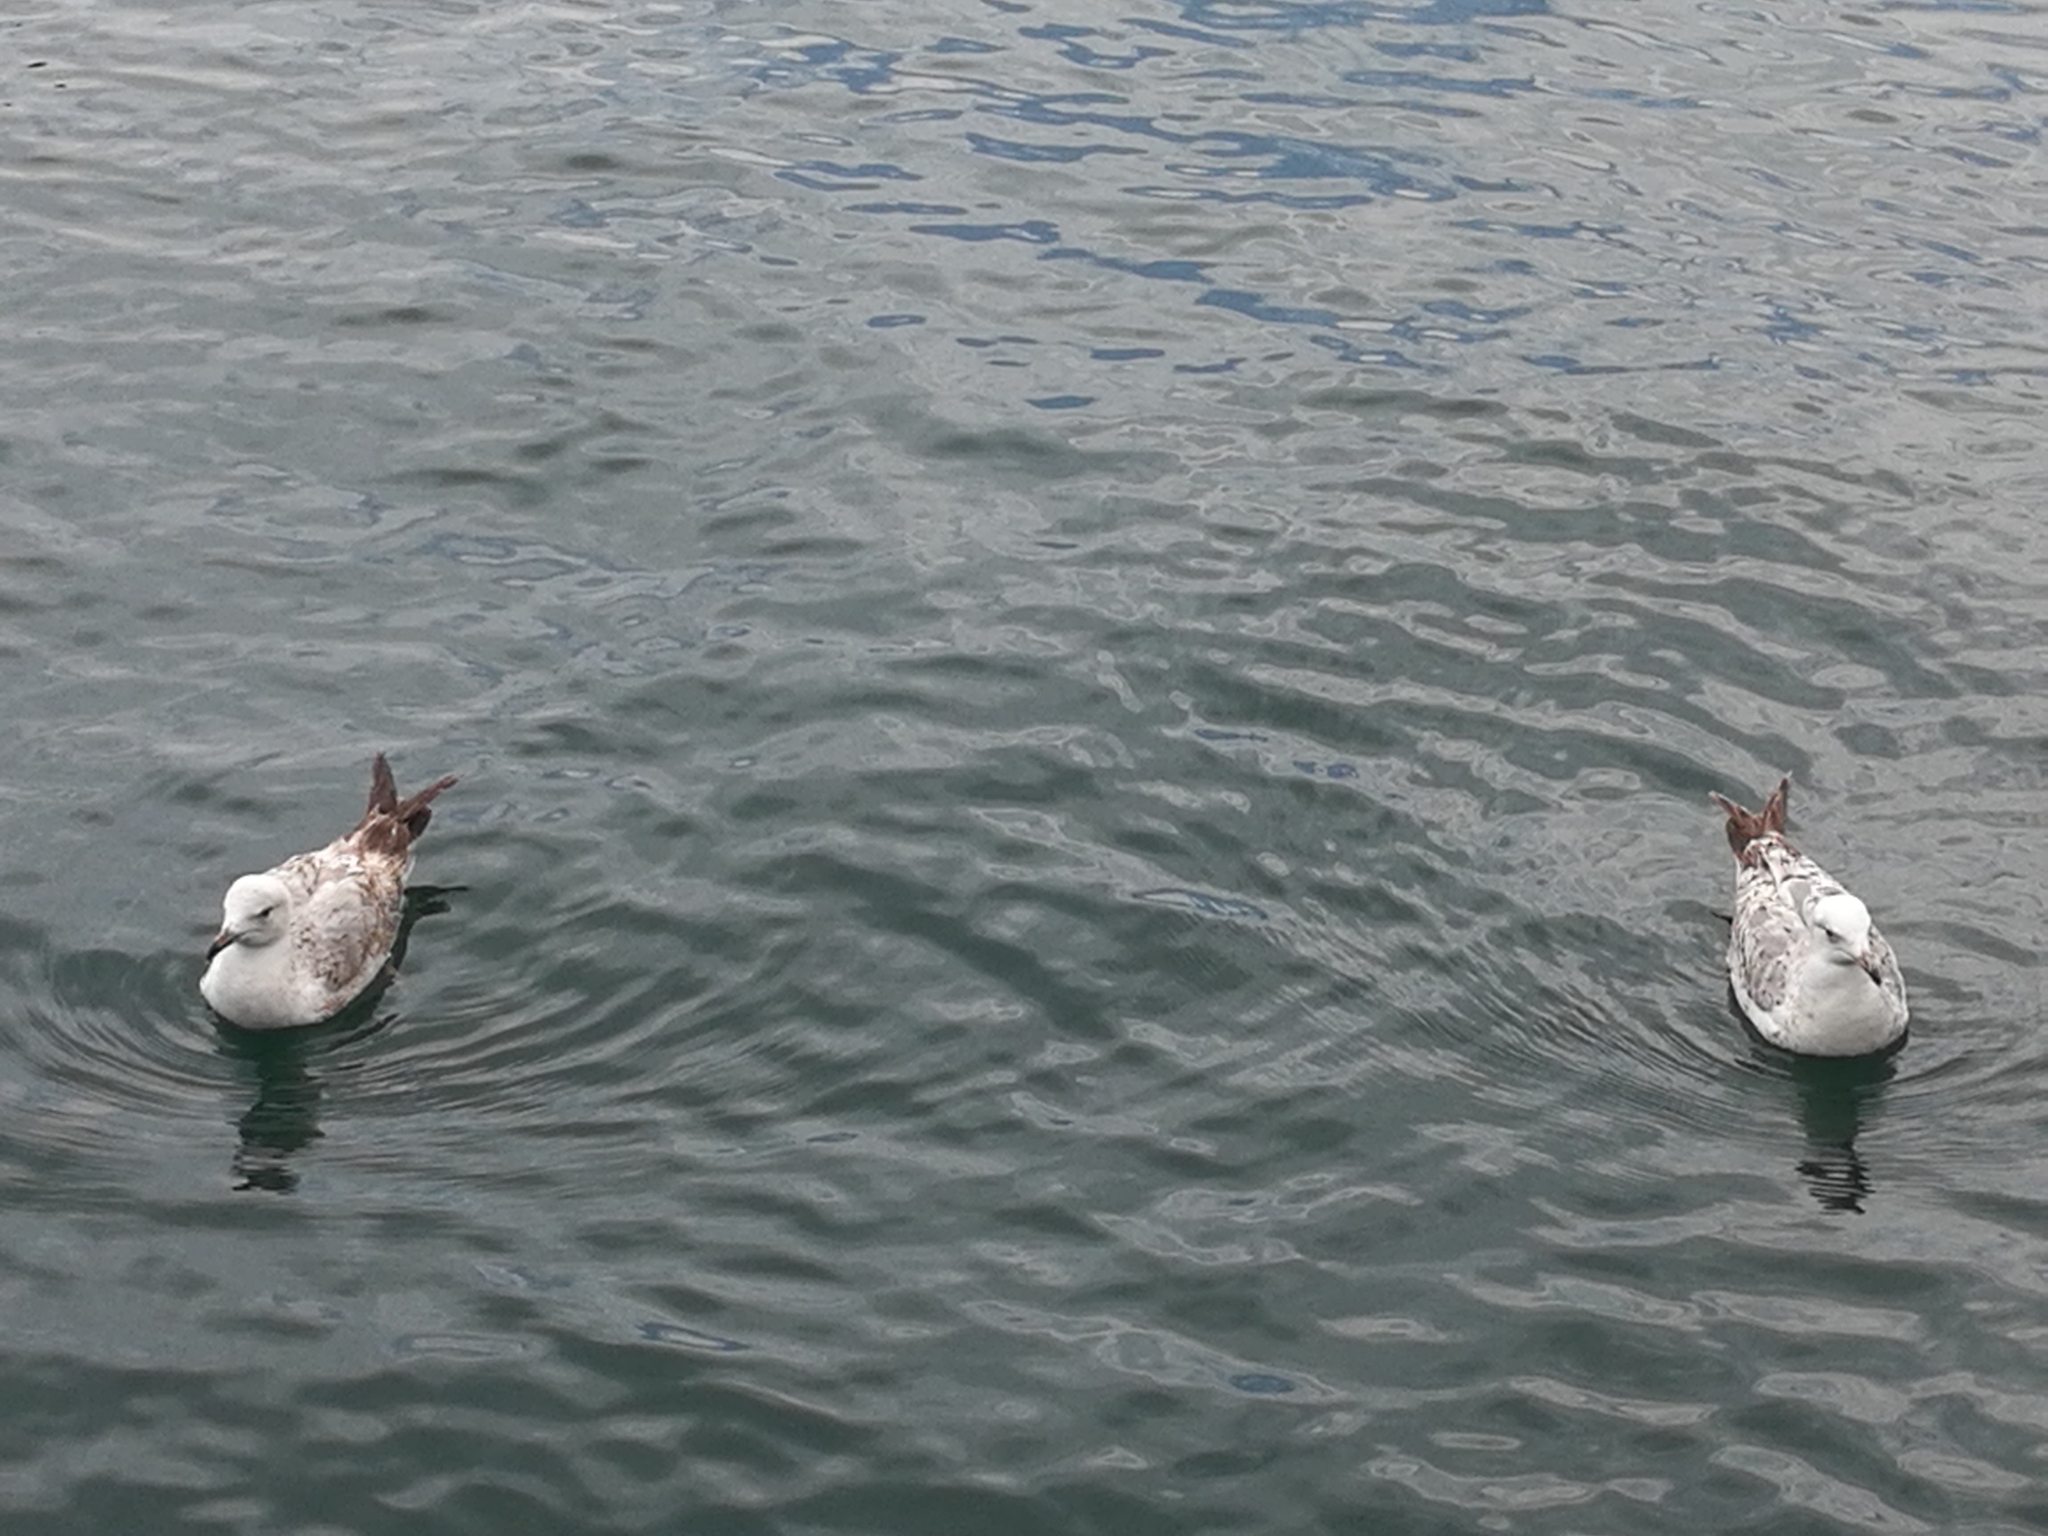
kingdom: Animalia
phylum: Chordata
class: Aves
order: Charadriiformes
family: Laridae
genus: Larus
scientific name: Larus michahellis
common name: Yellow-legged gull
